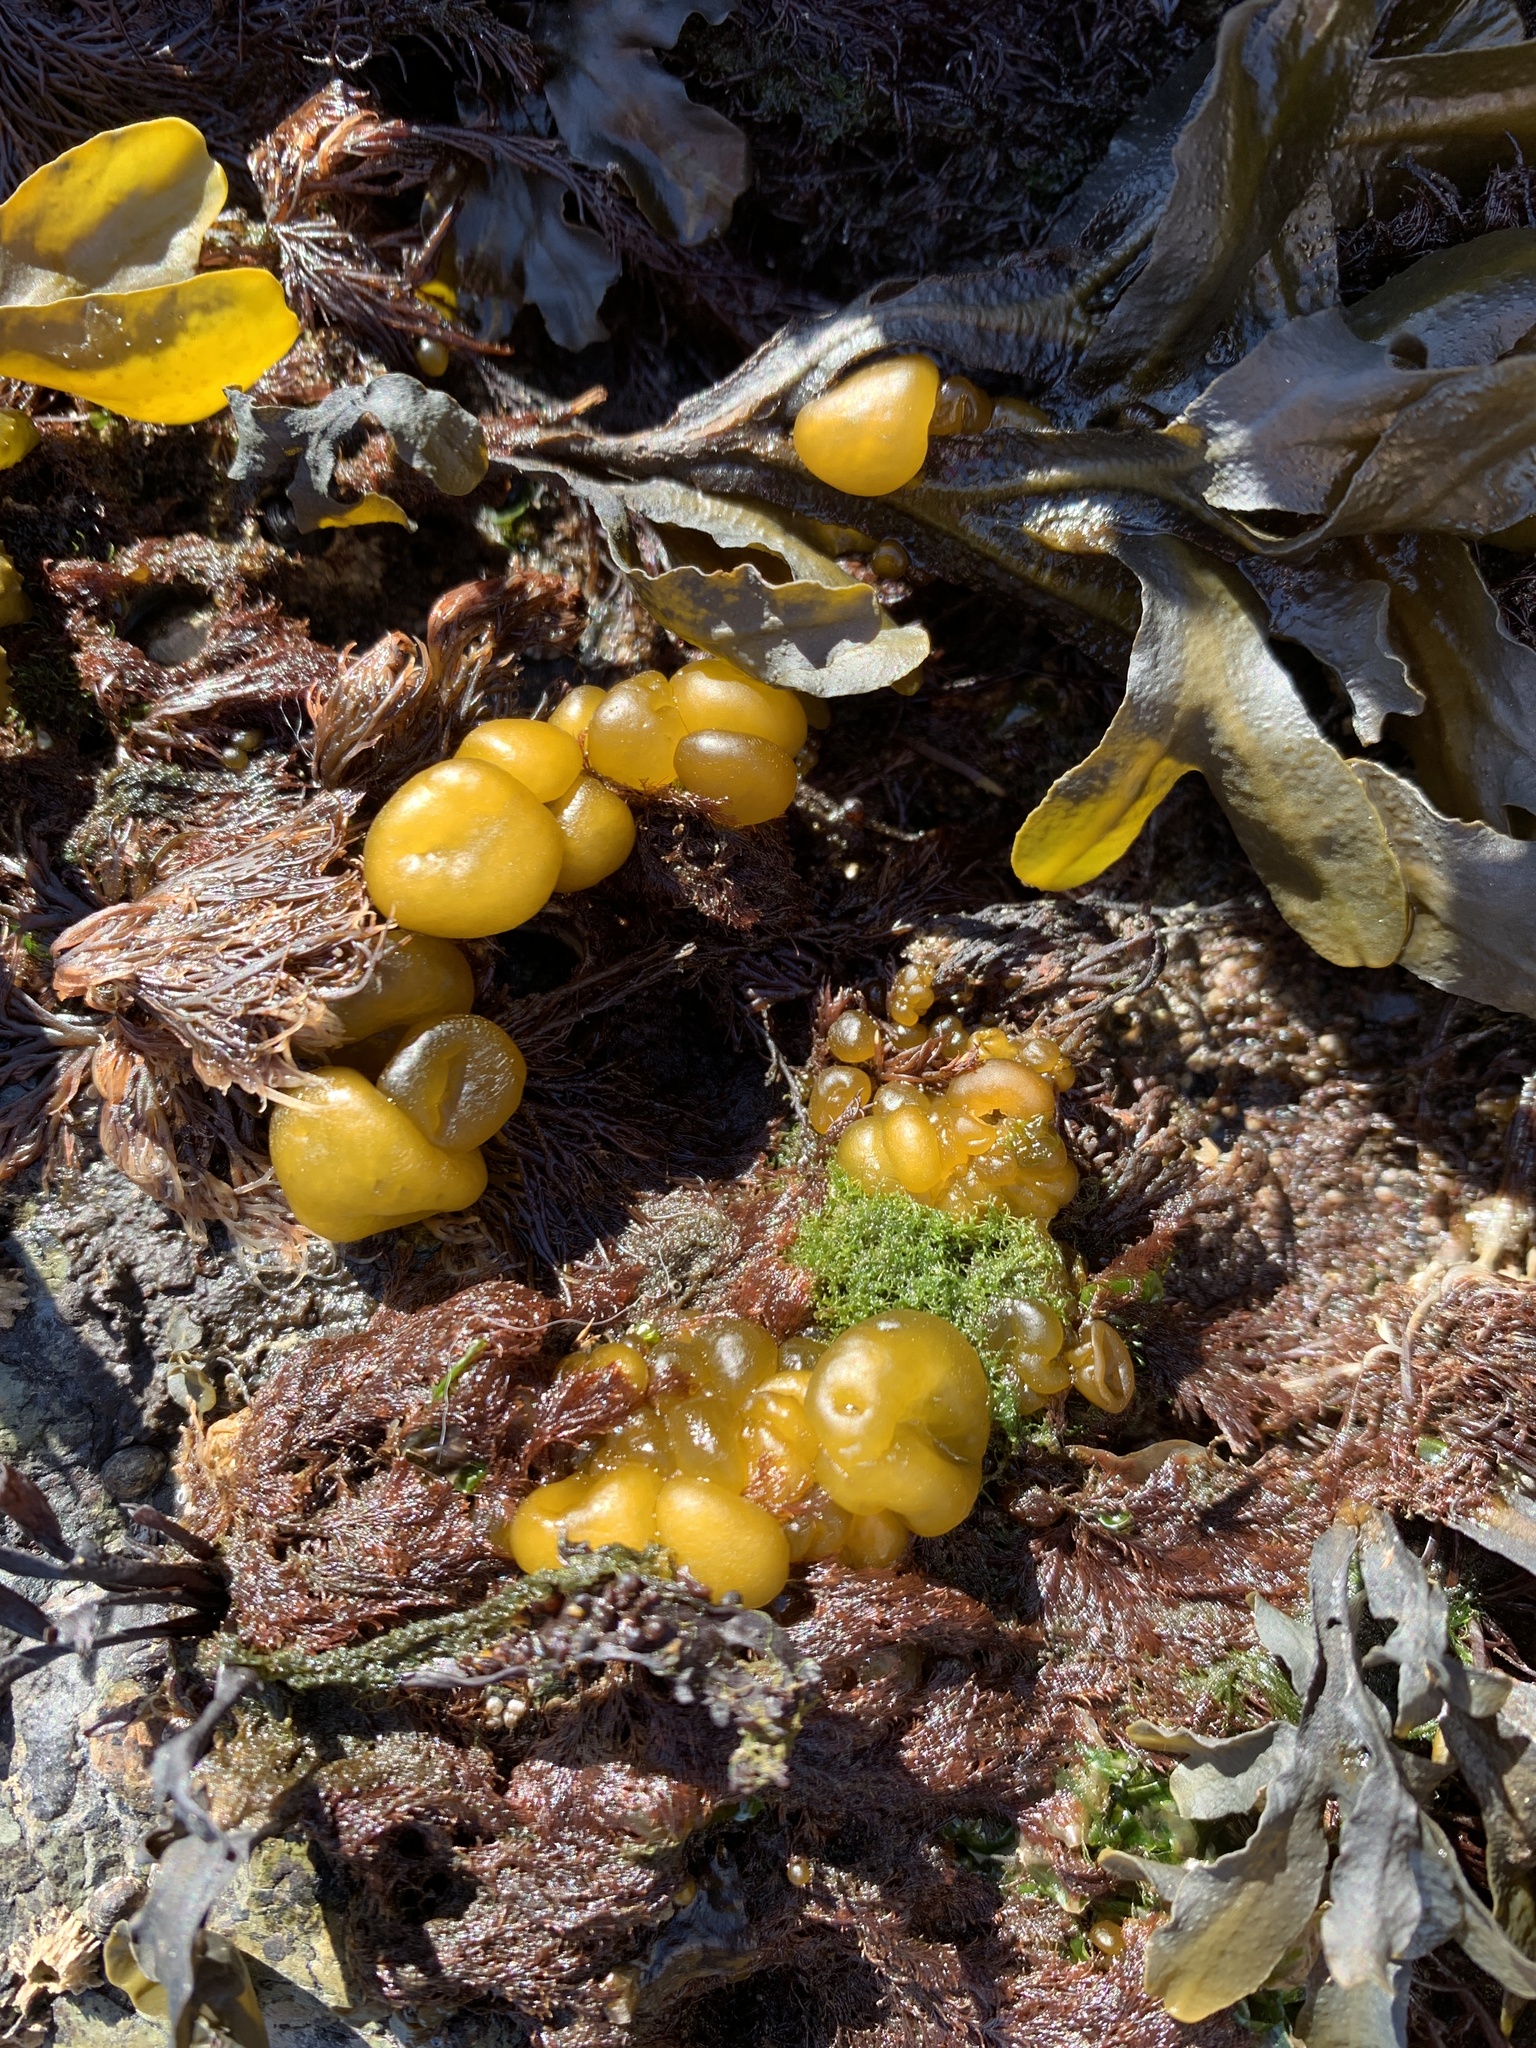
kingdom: Chromista
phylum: Ochrophyta
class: Phaeophyceae
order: Ectocarpales
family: Chordariaceae
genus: Leathesia
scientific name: Leathesia marina
